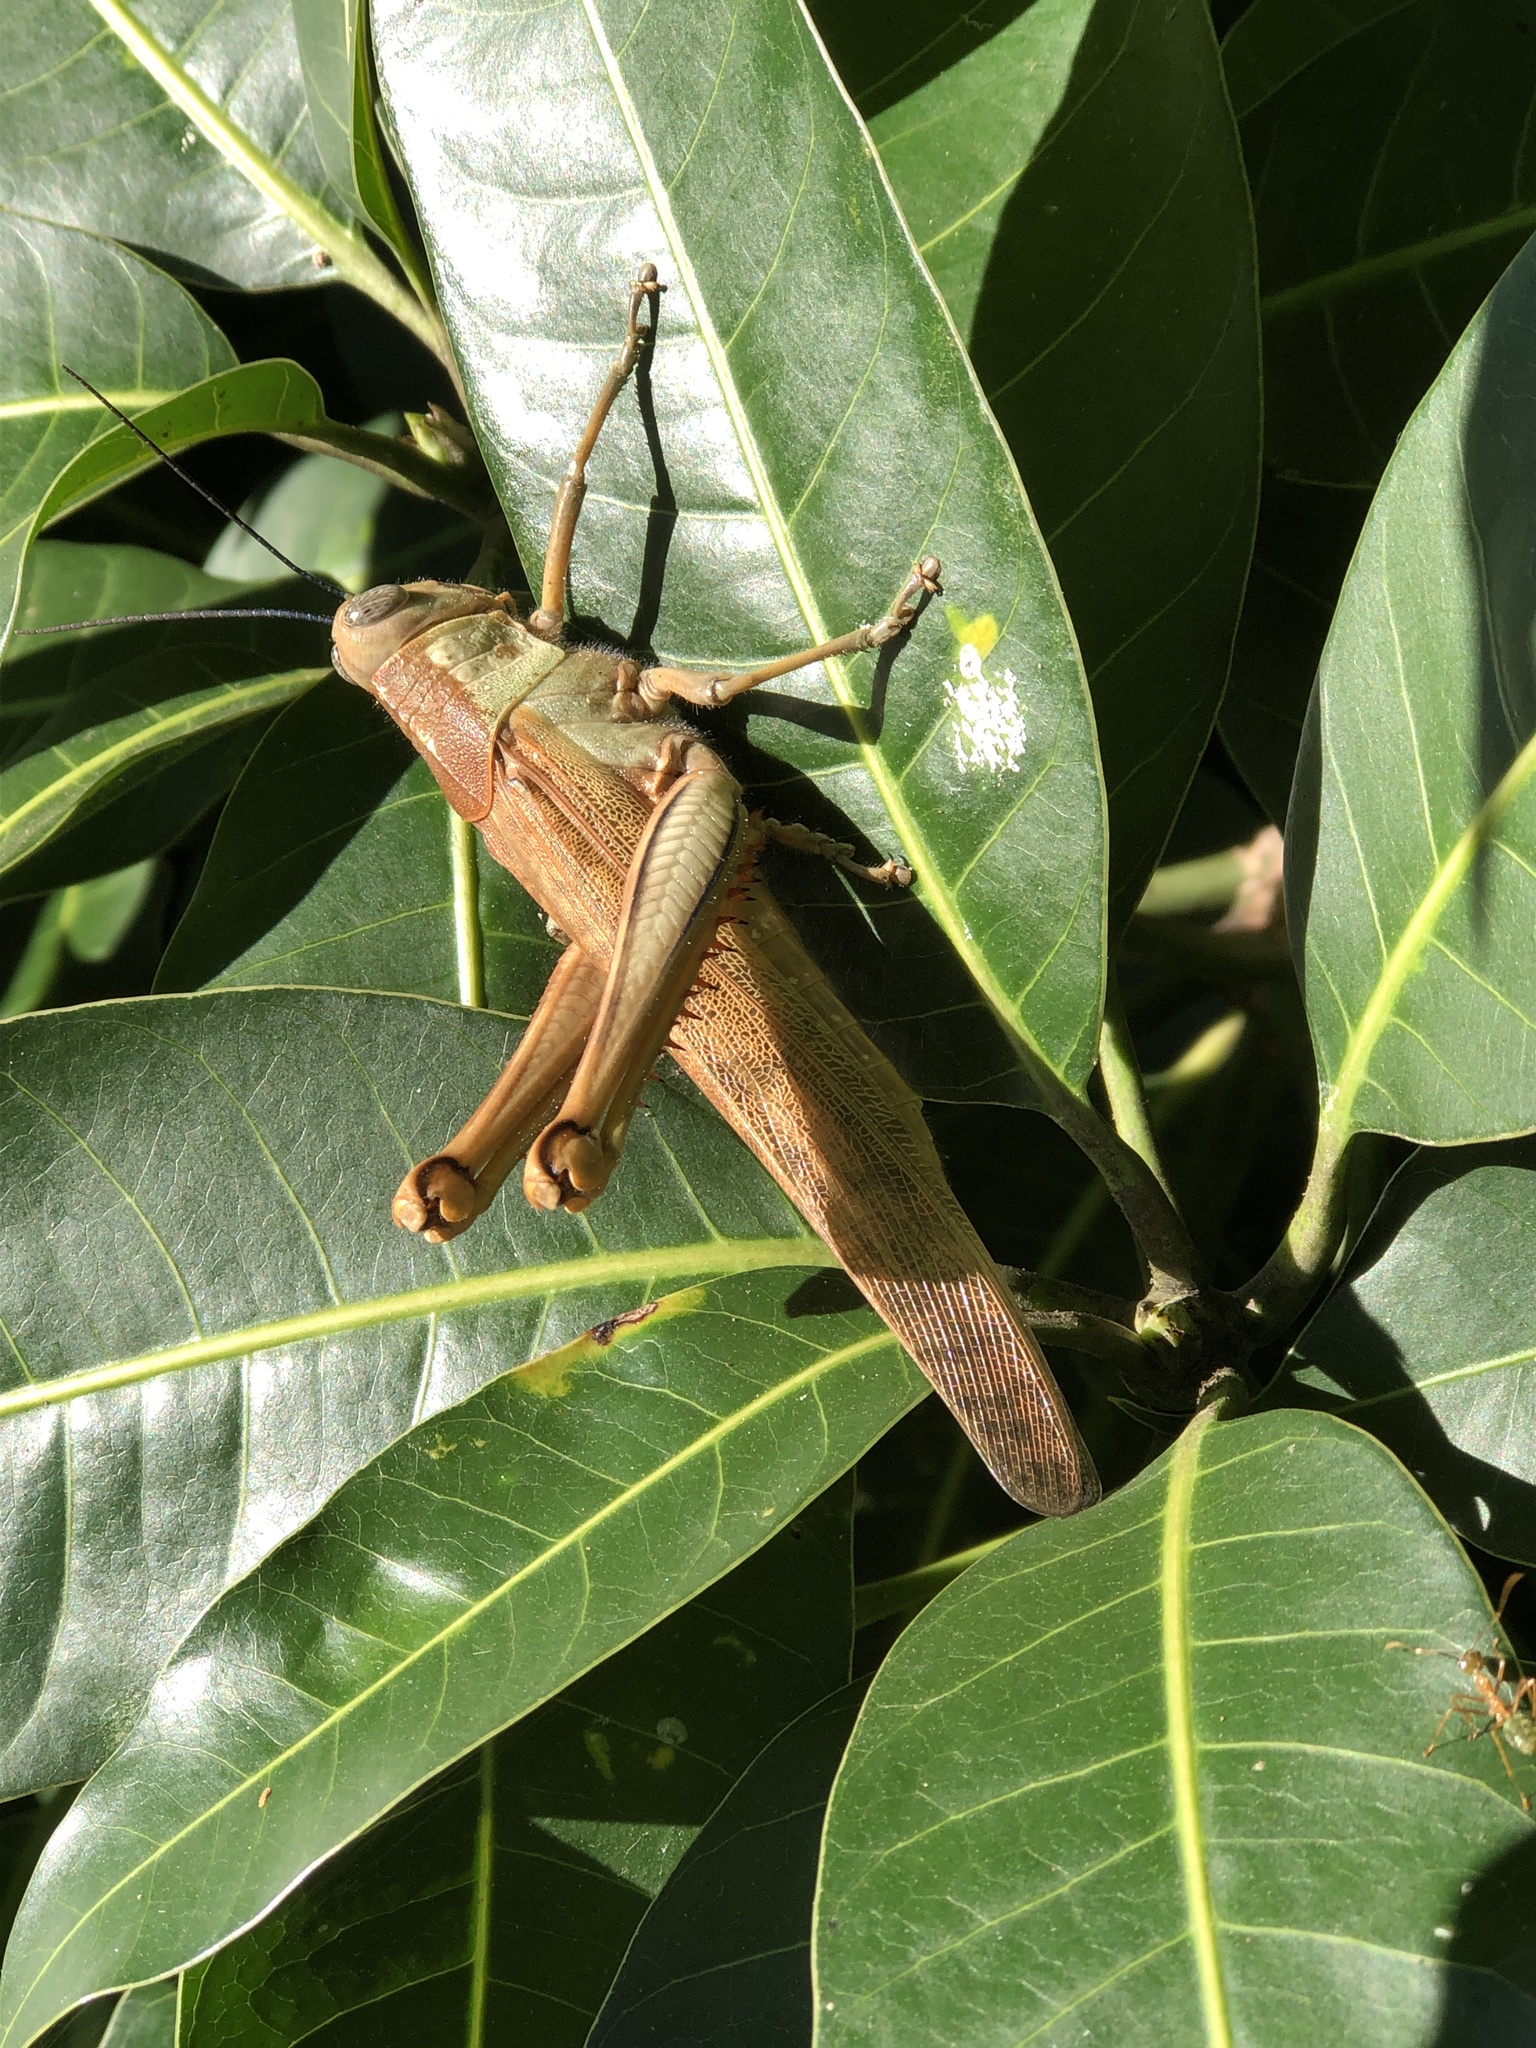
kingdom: Animalia
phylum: Arthropoda
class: Insecta
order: Orthoptera
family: Acrididae
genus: Valanga
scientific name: Valanga irregularis
